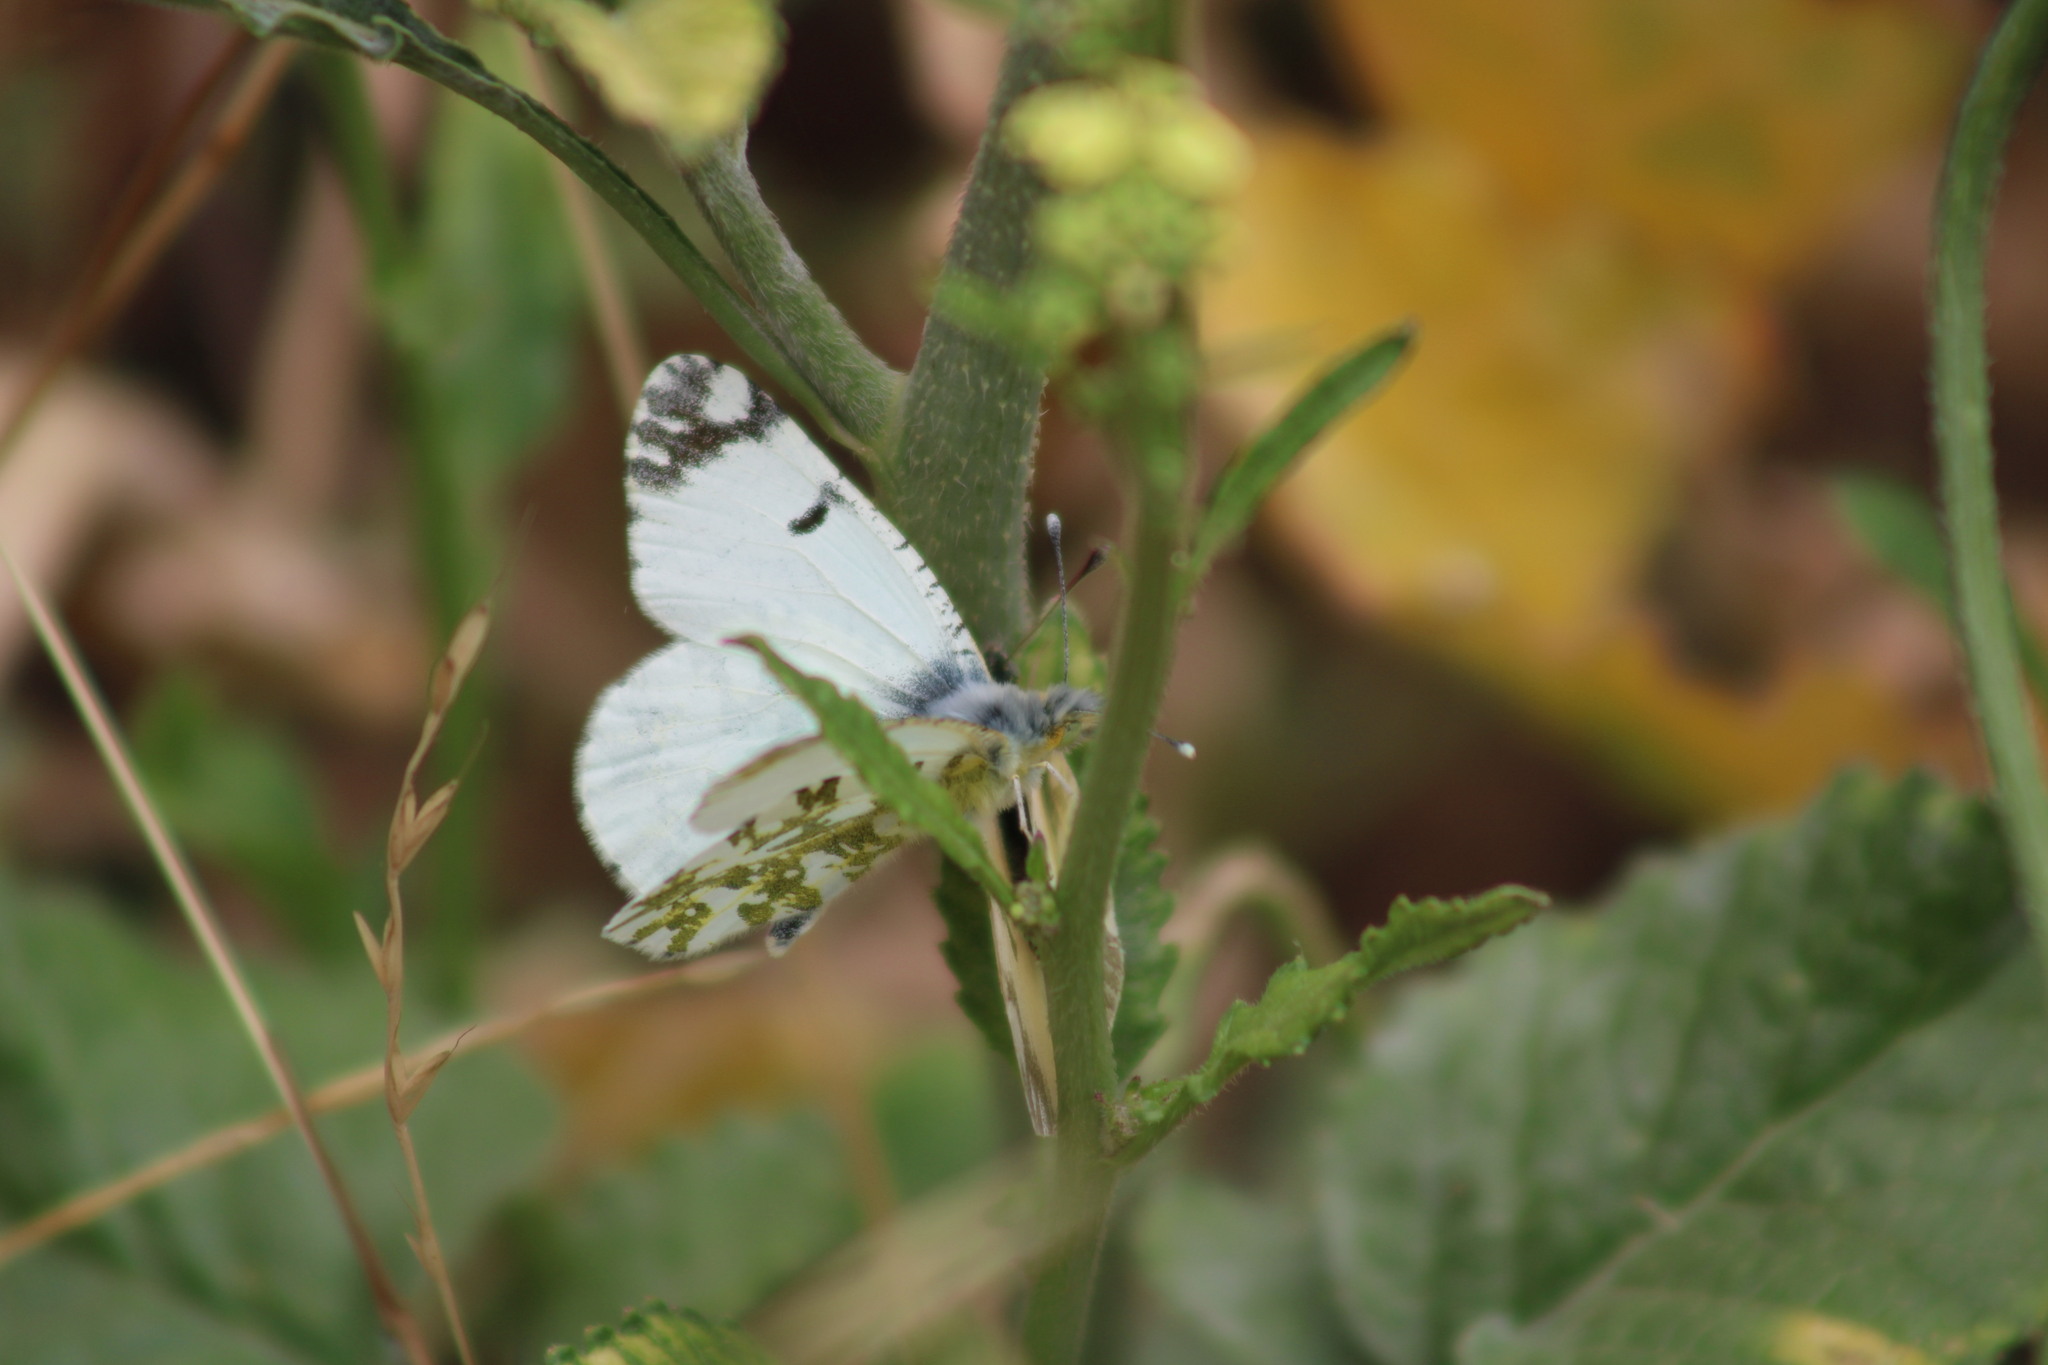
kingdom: Animalia
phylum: Arthropoda
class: Insecta
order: Lepidoptera
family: Pieridae
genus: Euchloe
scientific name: Euchloe ausonides
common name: Creamy marblewing
